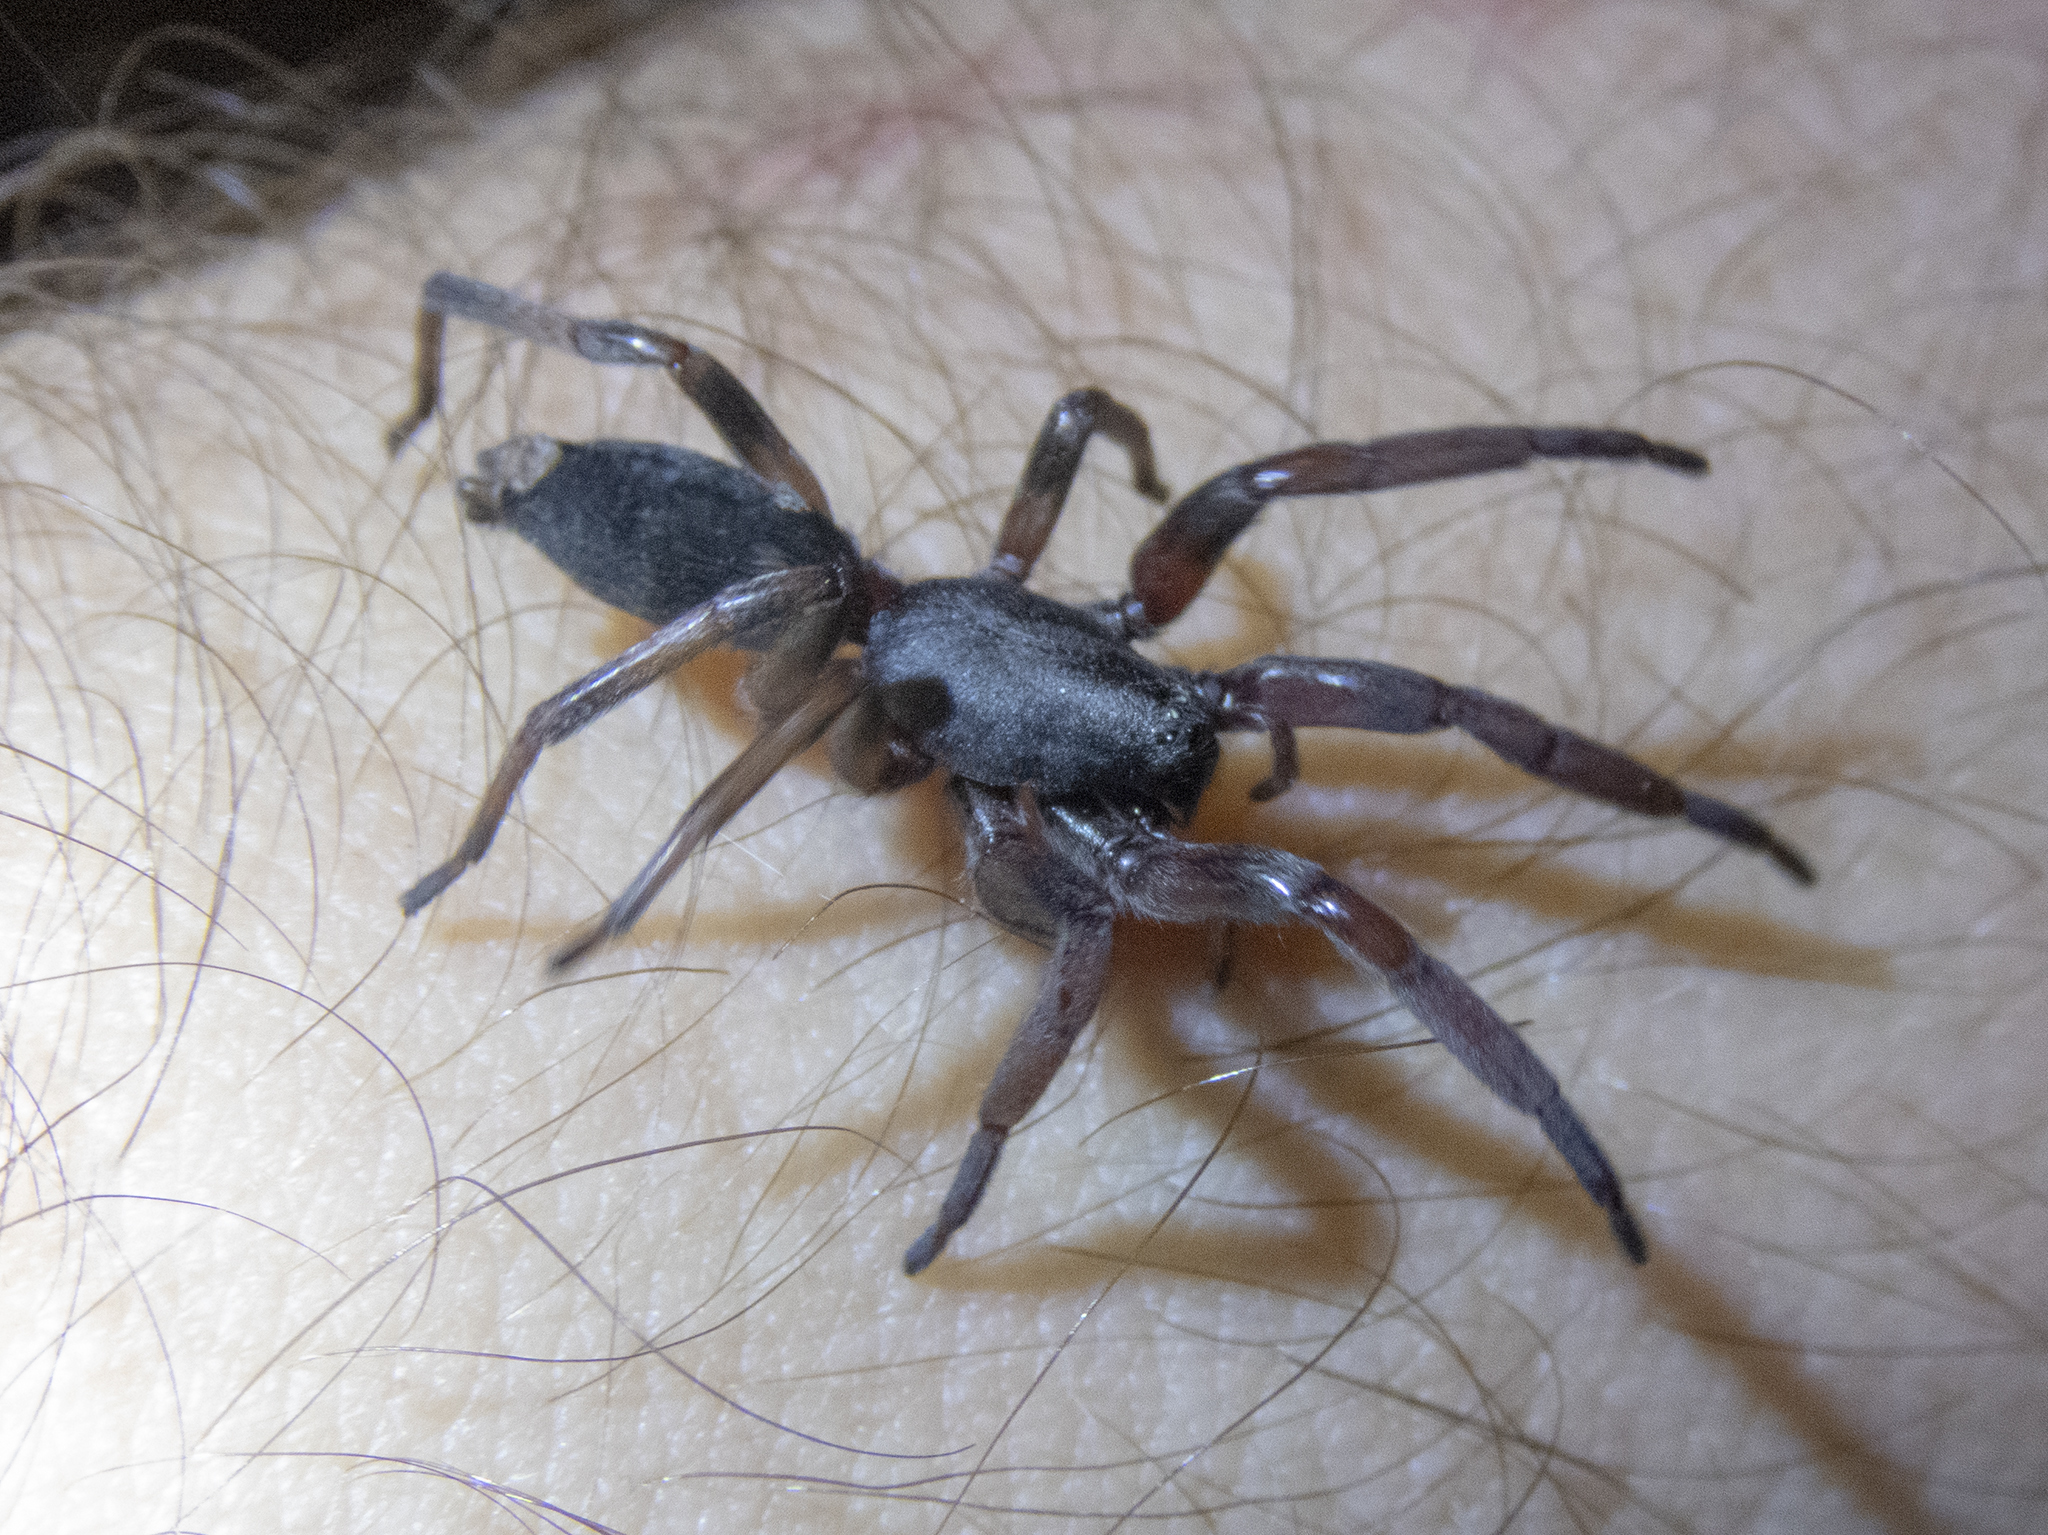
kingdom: Animalia
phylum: Arthropoda
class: Arachnida
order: Araneae
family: Lamponidae
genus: Lampona
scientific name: Lampona cylindrata
